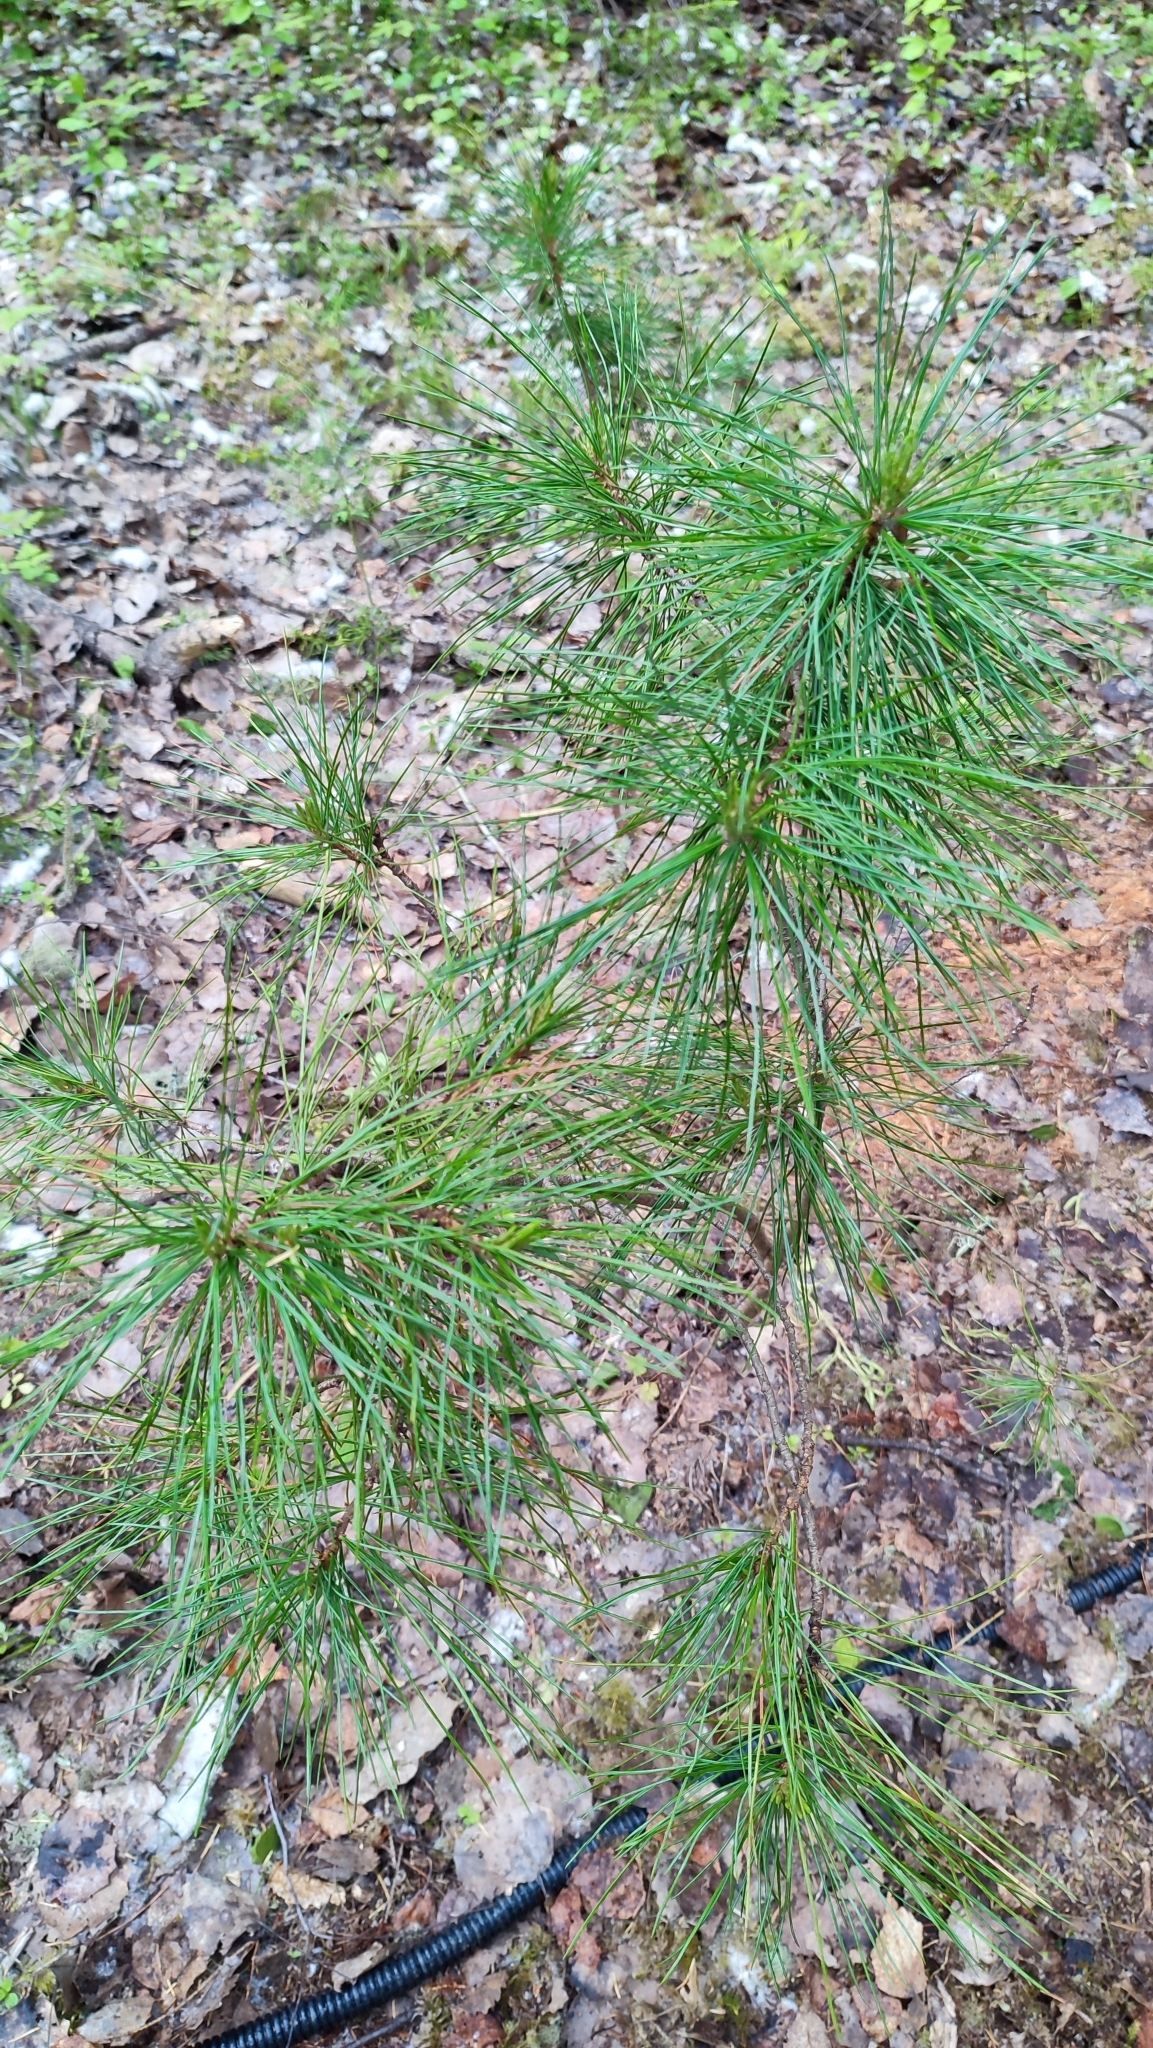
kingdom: Plantae
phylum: Tracheophyta
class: Pinopsida
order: Pinales
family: Pinaceae
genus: Pinus
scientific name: Pinus sibirica
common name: Siberian pine
